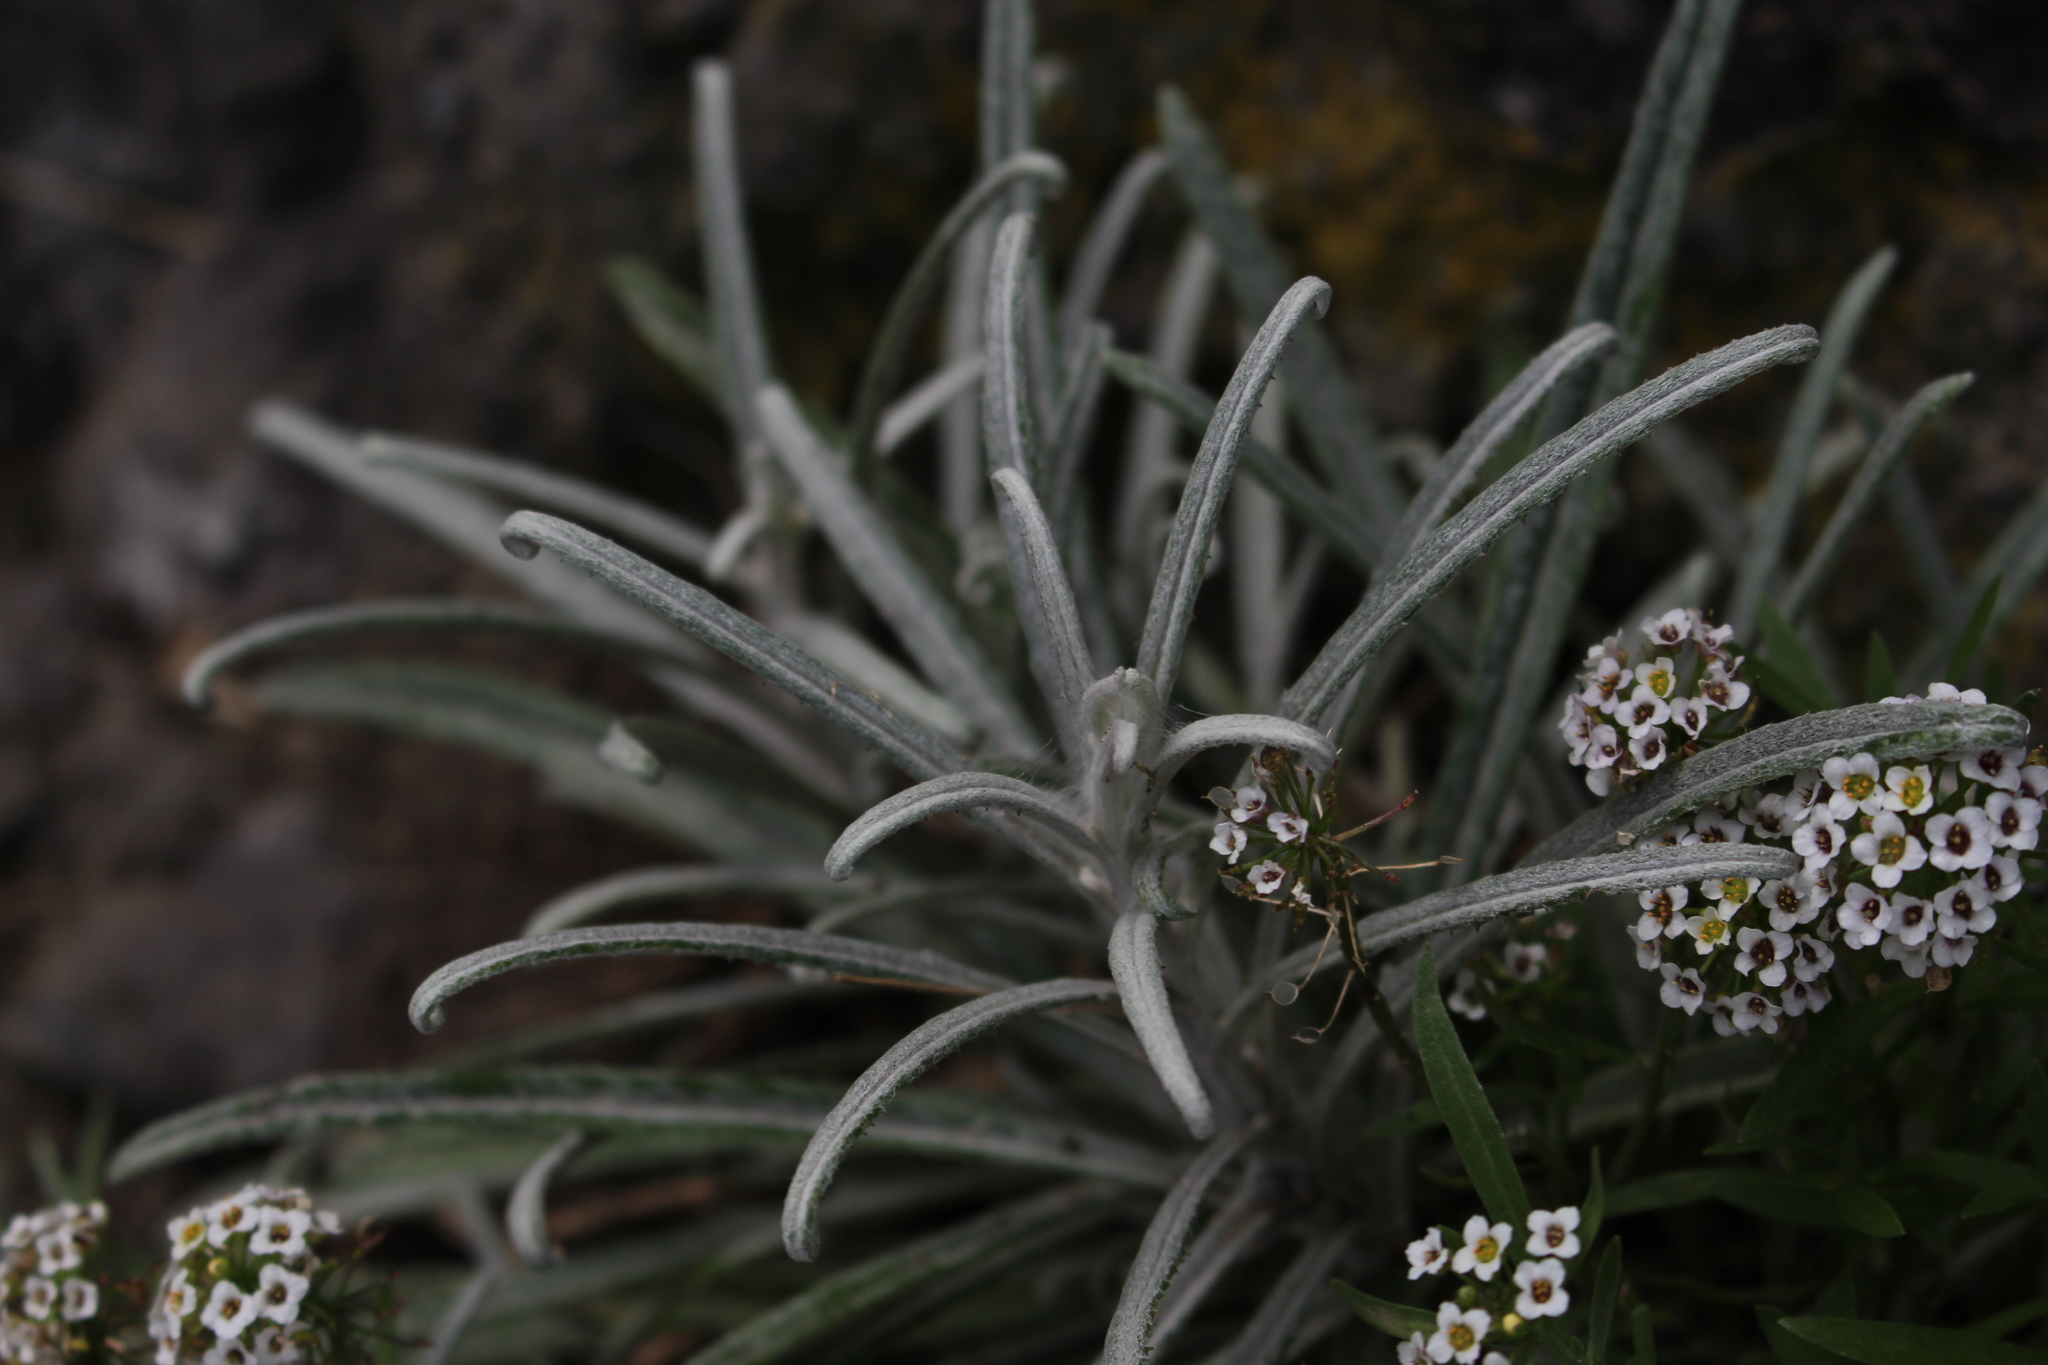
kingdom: Plantae
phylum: Tracheophyta
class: Magnoliopsida
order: Asterales
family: Asteraceae
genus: Senecio
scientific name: Senecio quadridentatus
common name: Cotton fireweed
